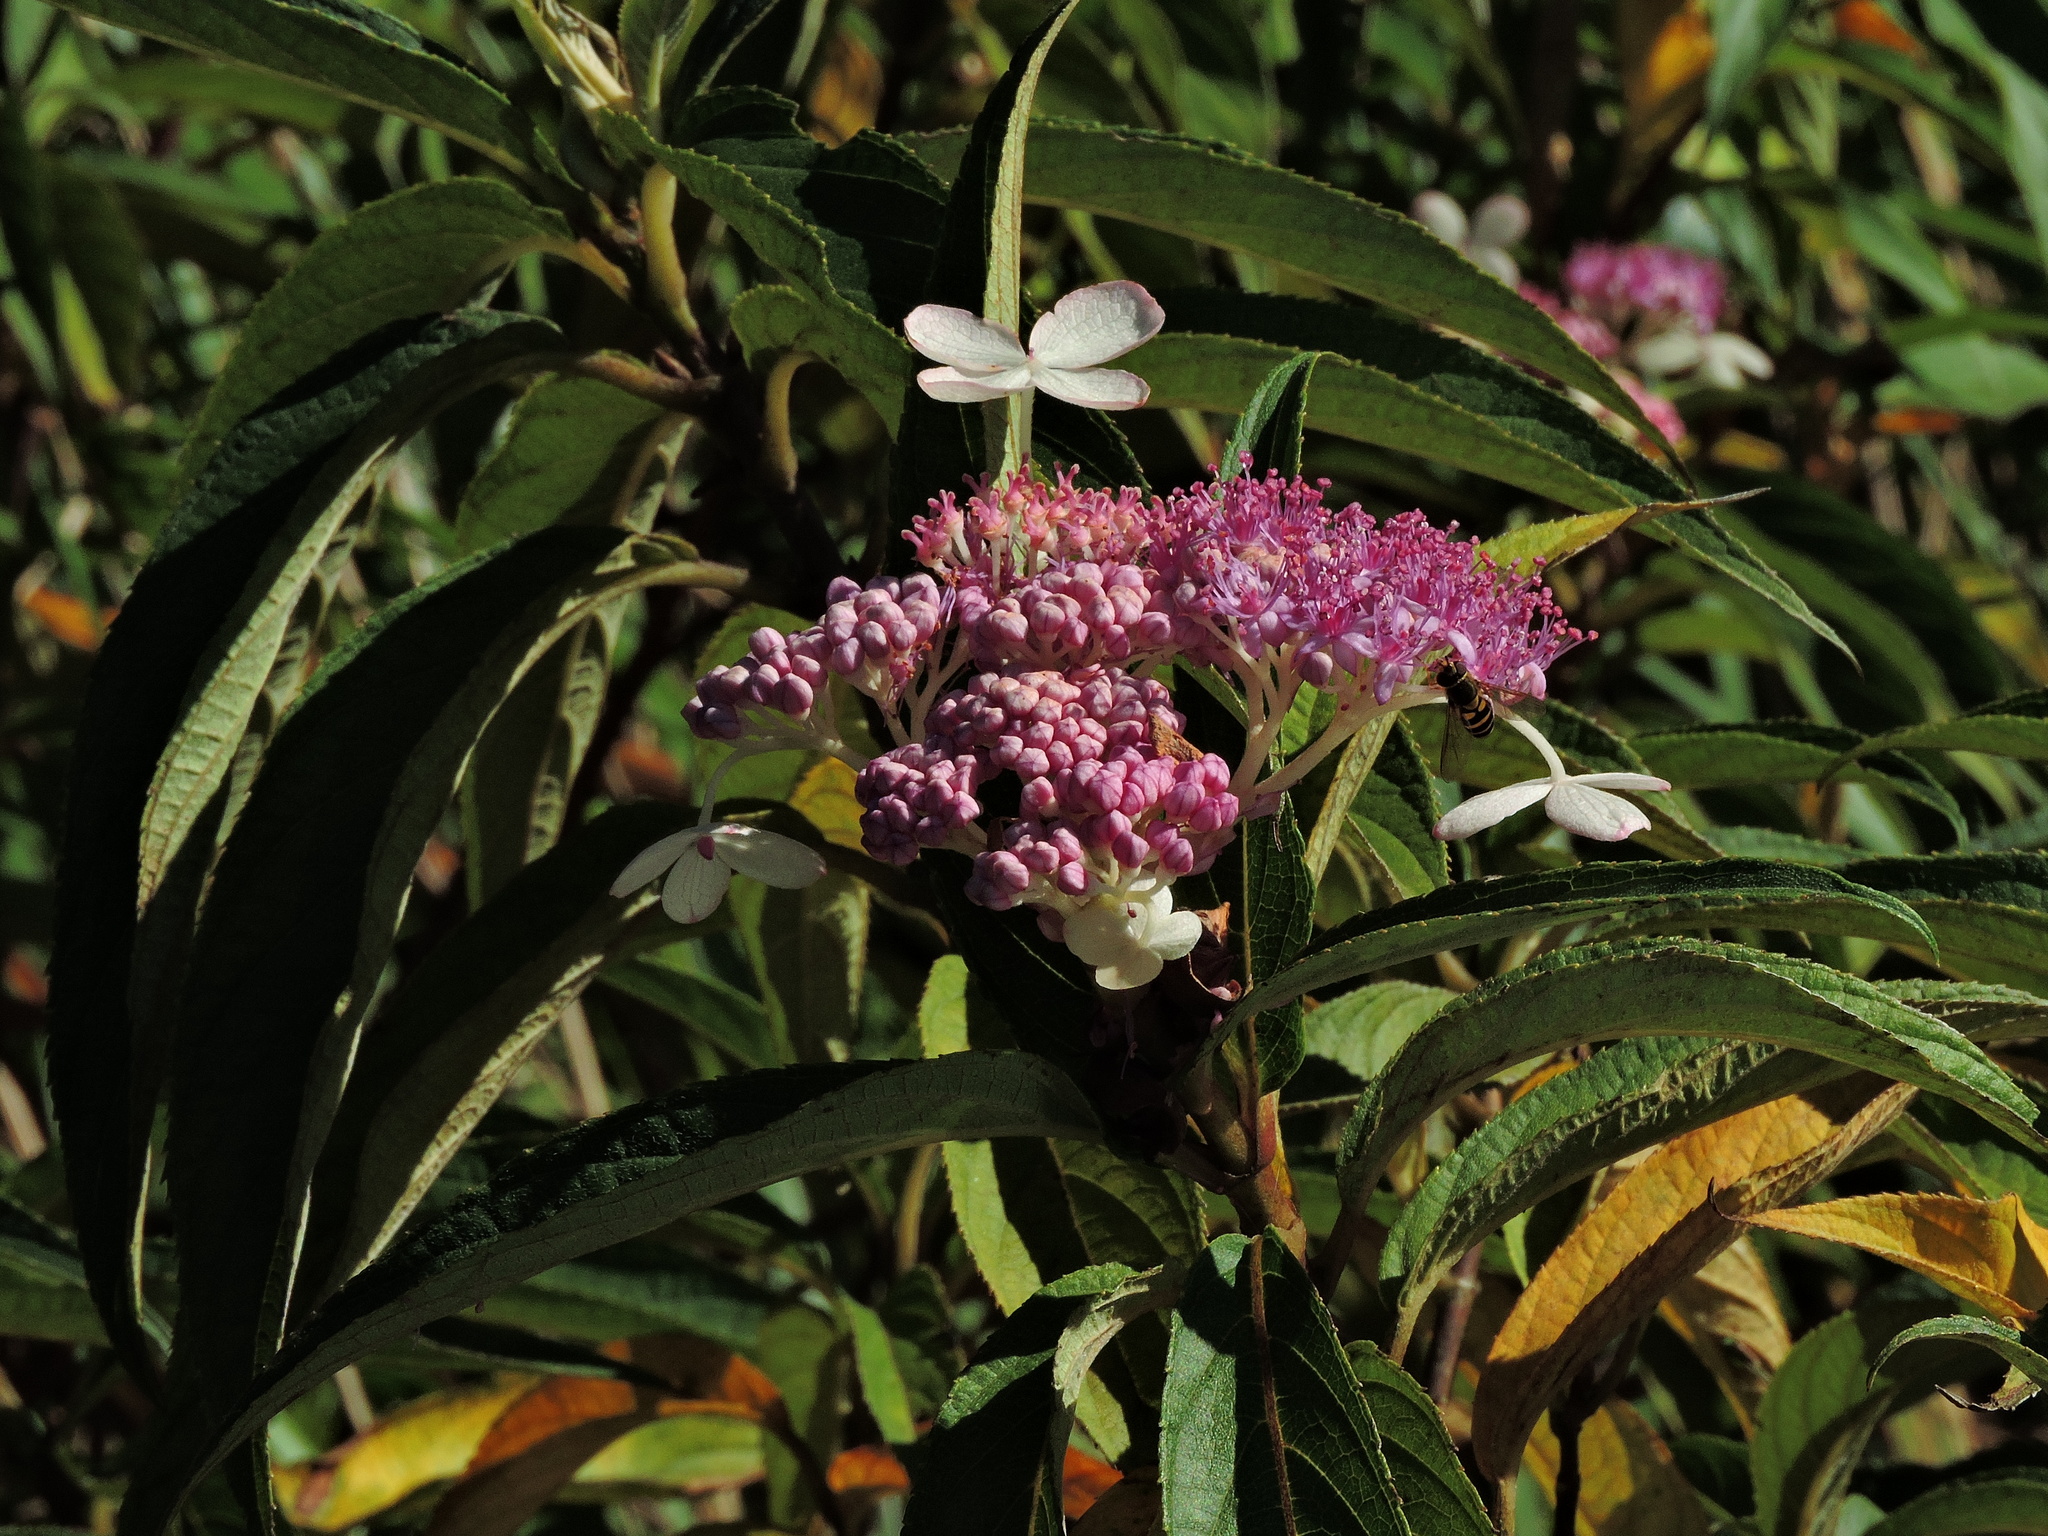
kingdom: Plantae
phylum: Tracheophyta
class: Magnoliopsida
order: Cornales
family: Hydrangeaceae
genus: Hydrangea
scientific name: Hydrangea longifolia
